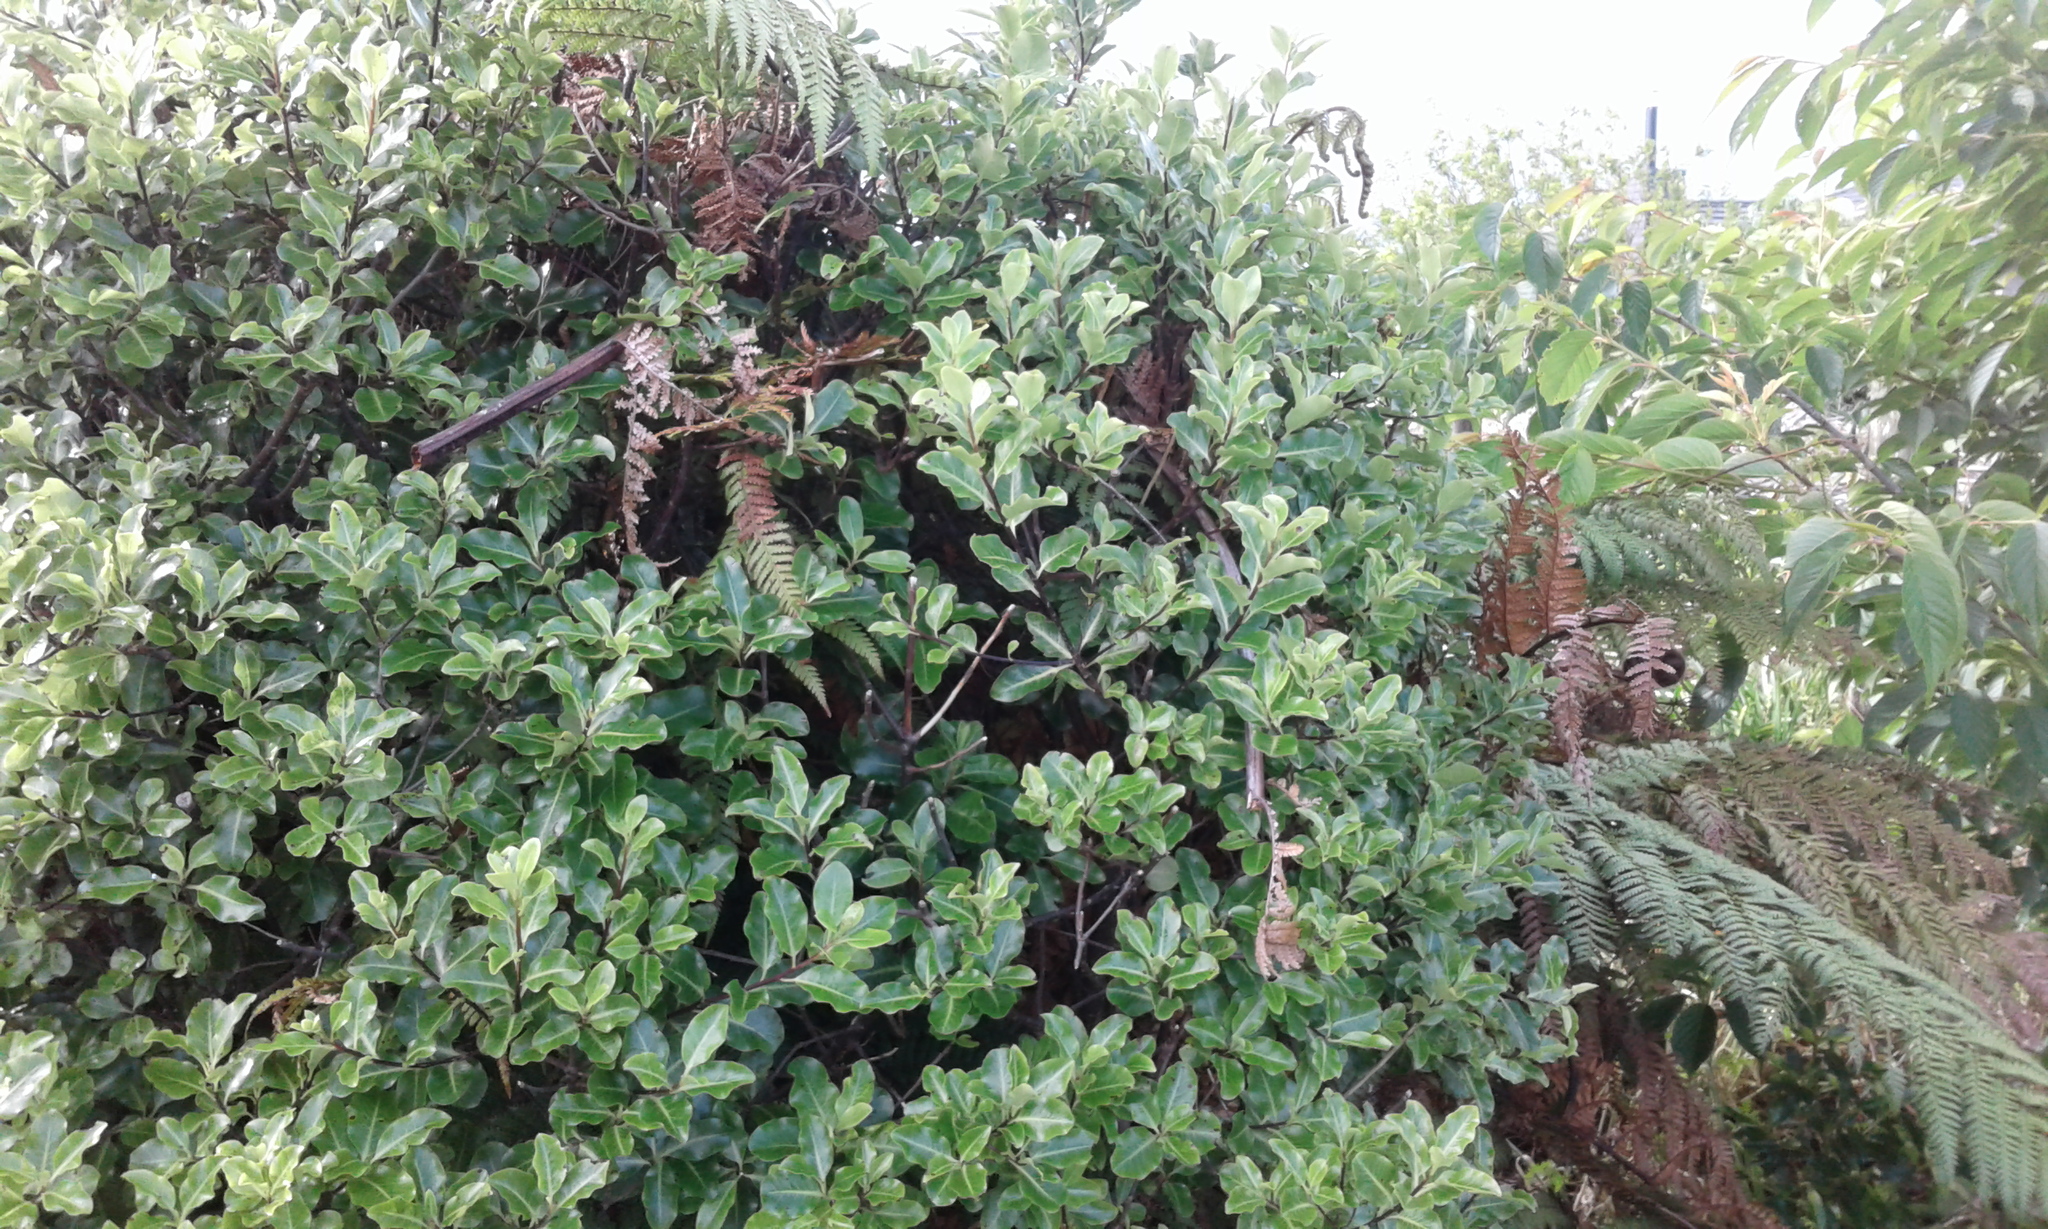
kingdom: Plantae
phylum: Tracheophyta
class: Magnoliopsida
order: Apiales
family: Pittosporaceae
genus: Pittosporum
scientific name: Pittosporum tenuifolium
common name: Kohuhu
